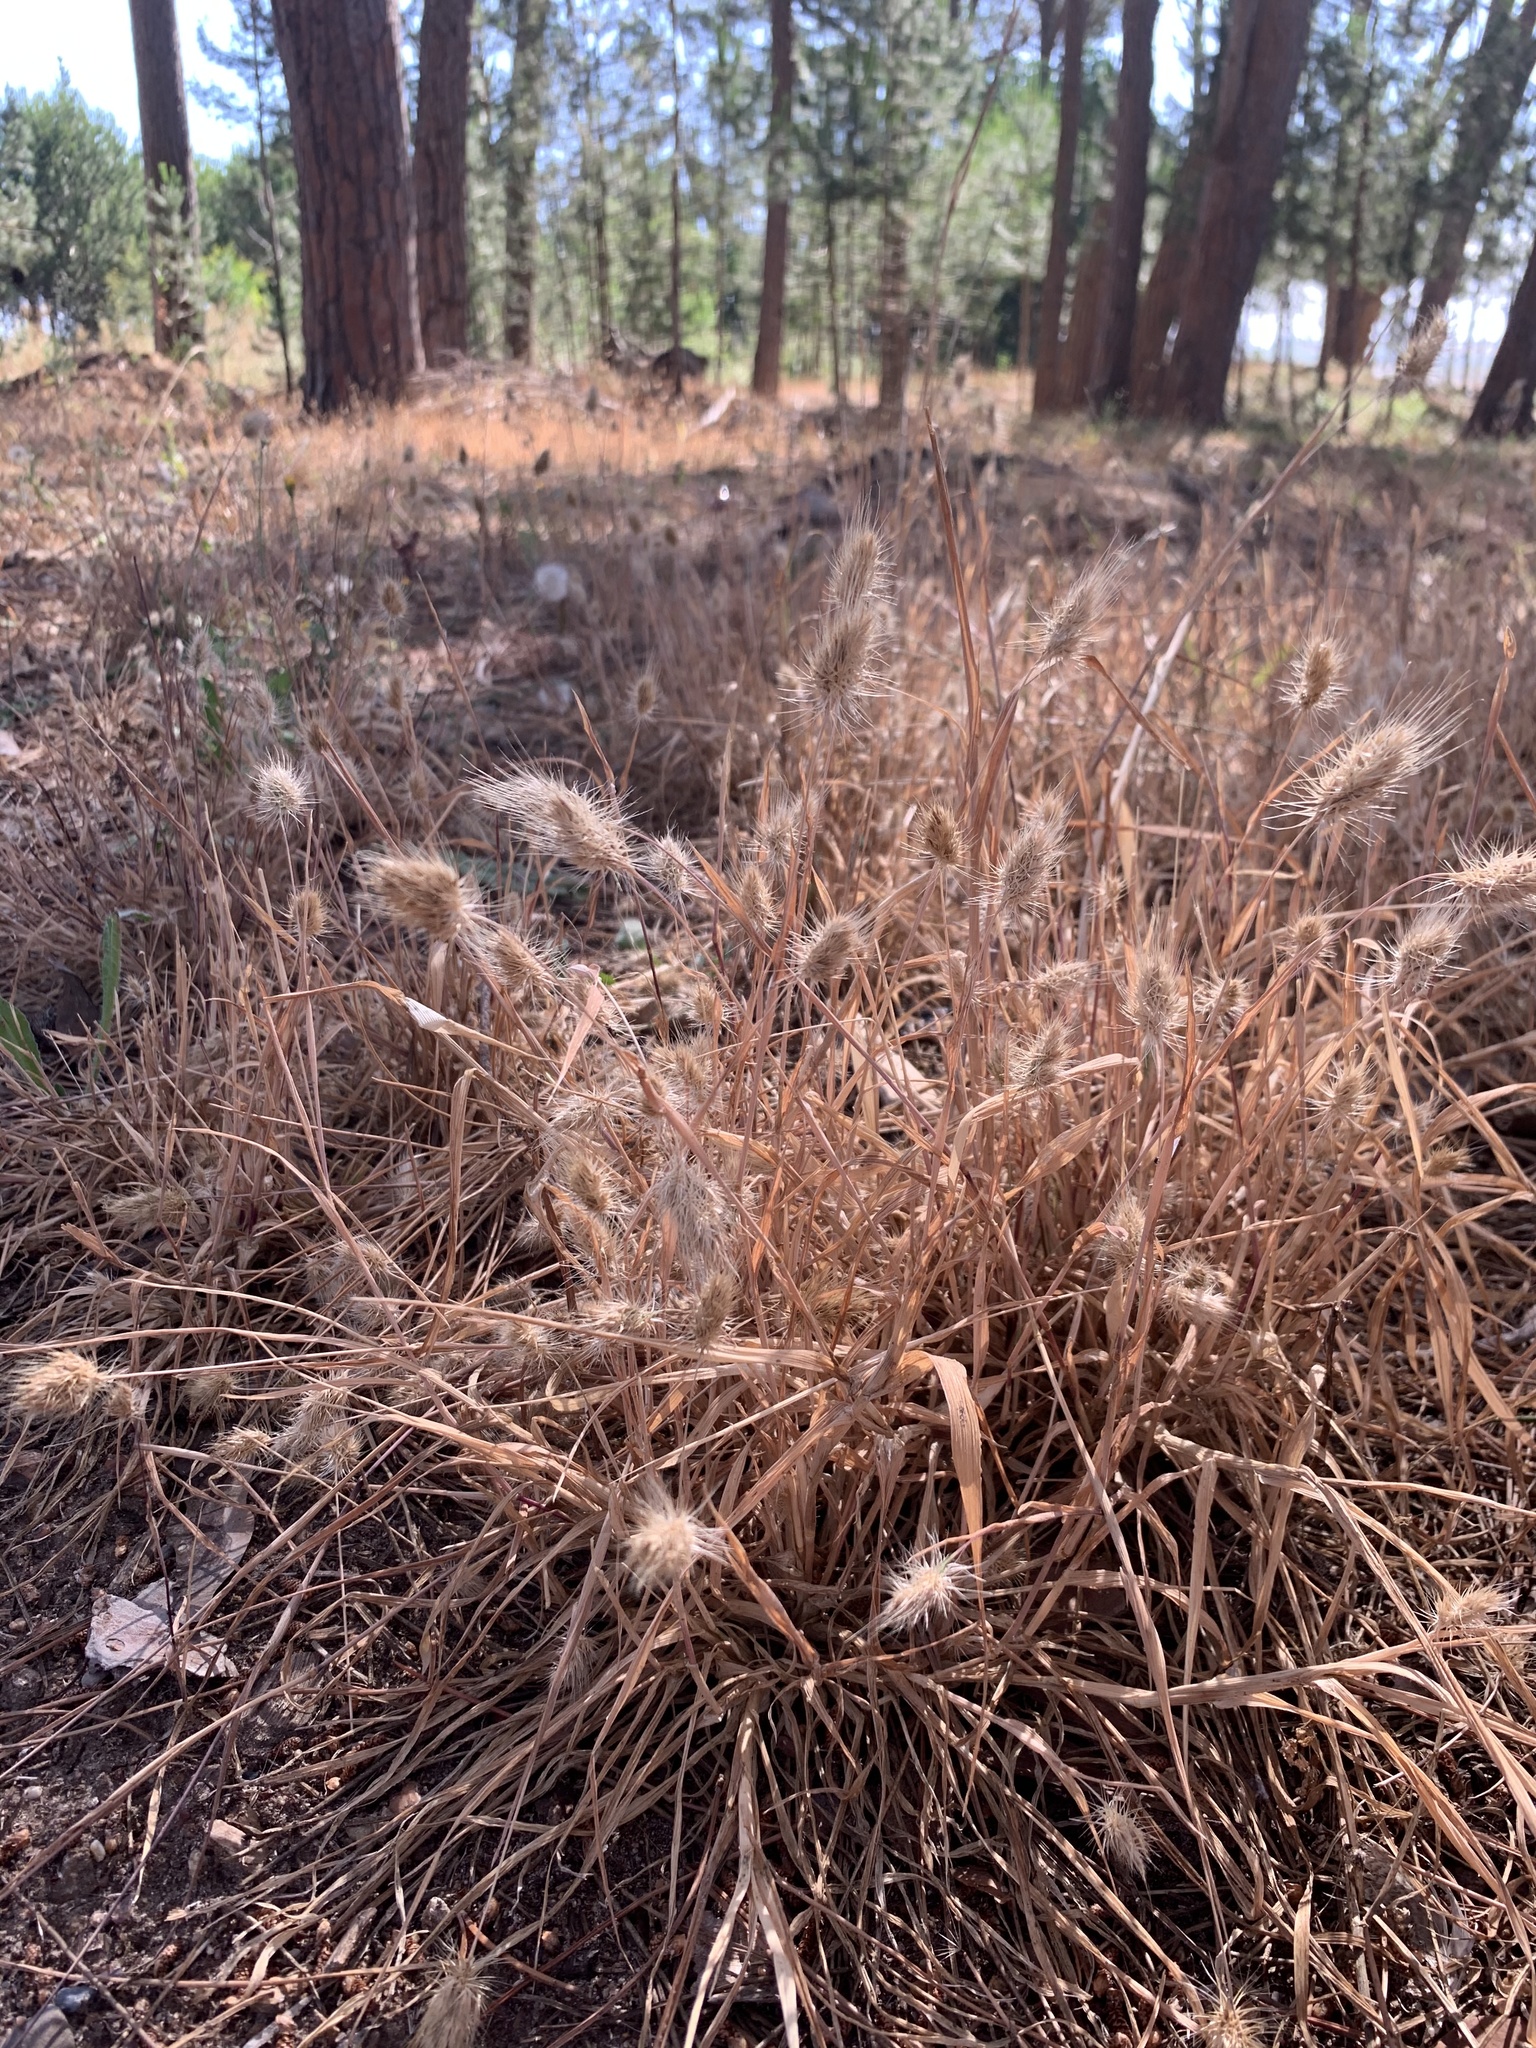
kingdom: Plantae
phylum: Tracheophyta
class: Liliopsida
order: Poales
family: Poaceae
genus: Cynosurus
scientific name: Cynosurus echinatus
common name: Rough dog's-tail
